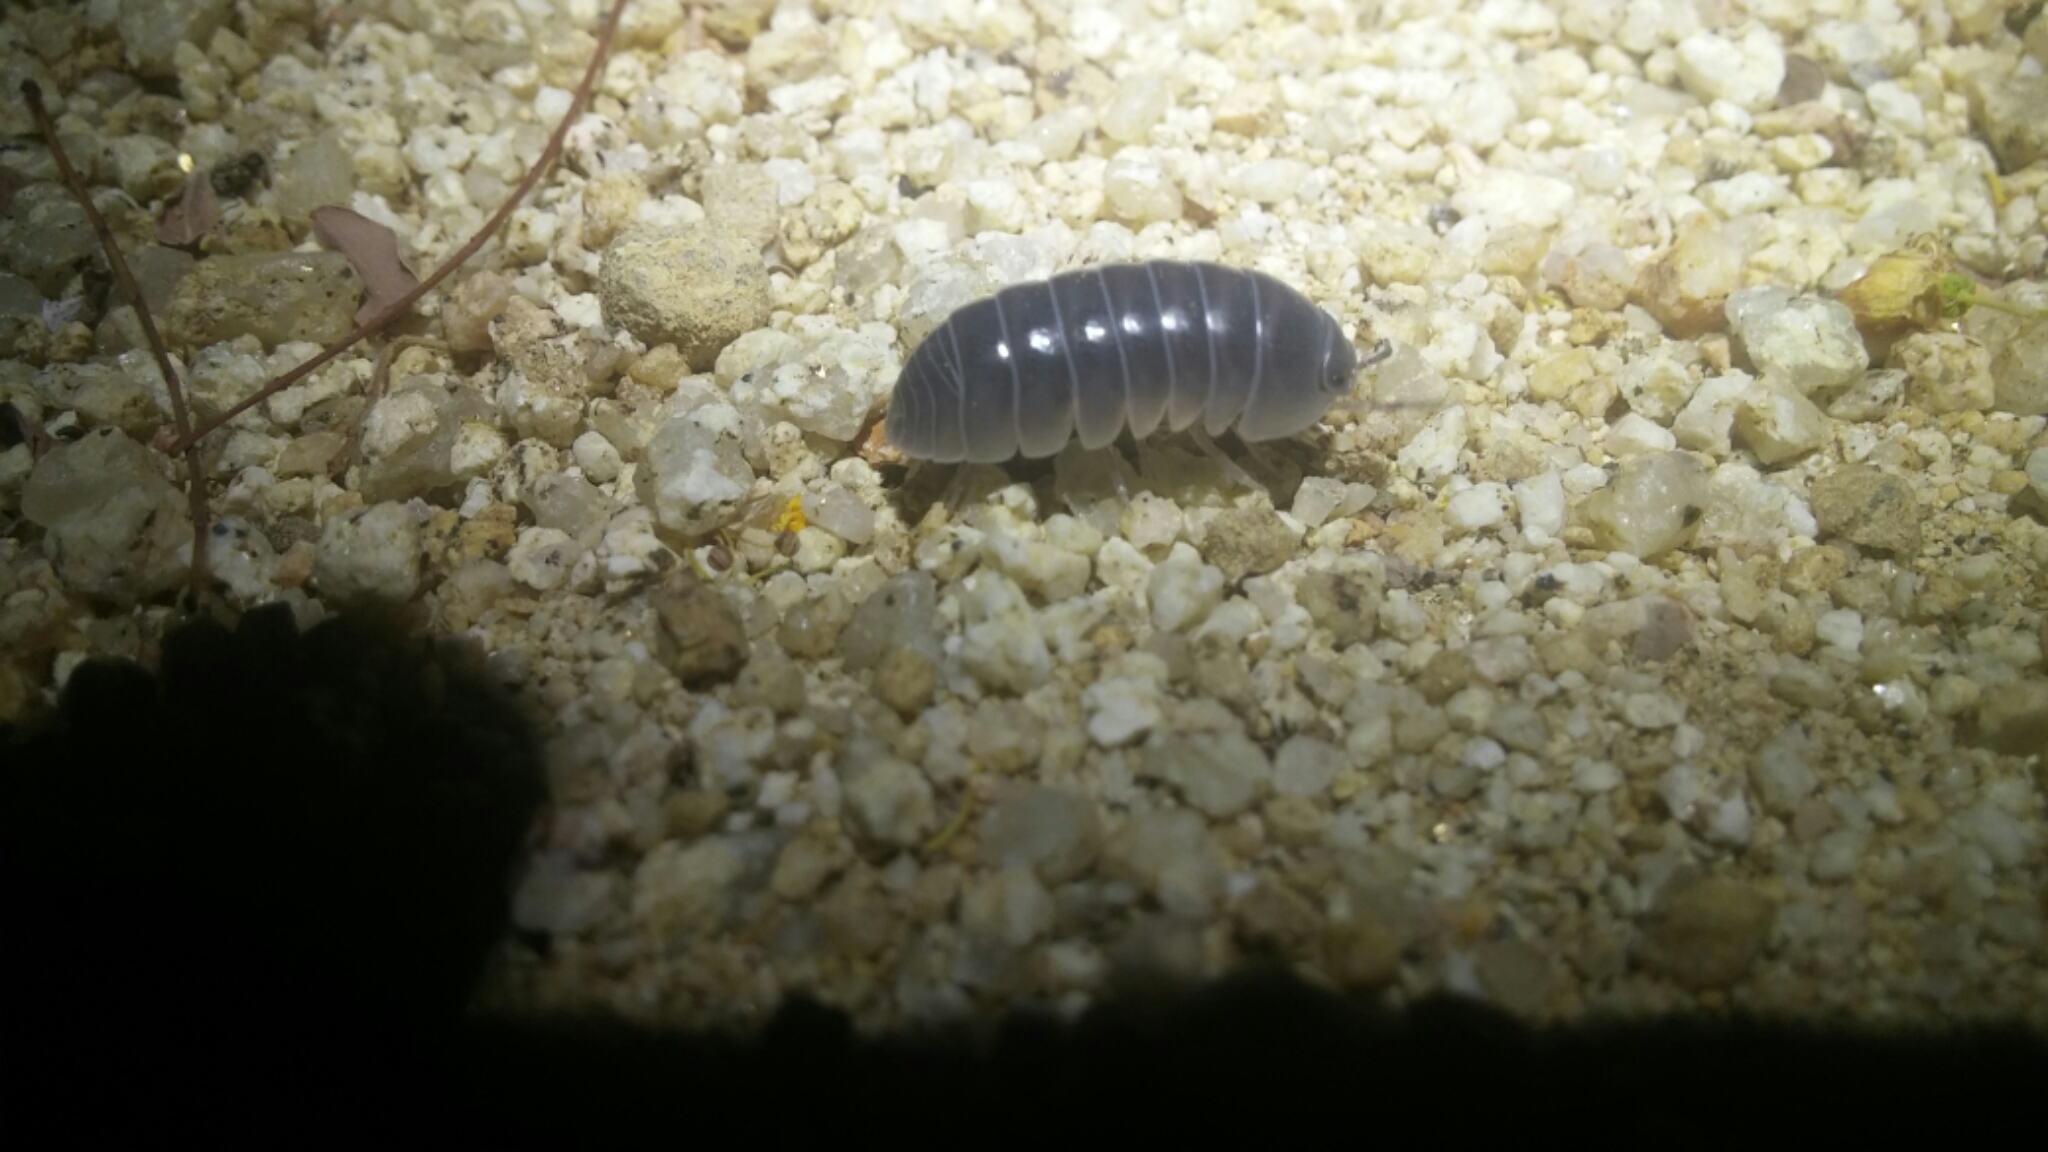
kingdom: Animalia
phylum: Arthropoda
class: Malacostraca
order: Isopoda
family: Armadillidae
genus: Venezillo
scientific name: Venezillo stuckchensis
